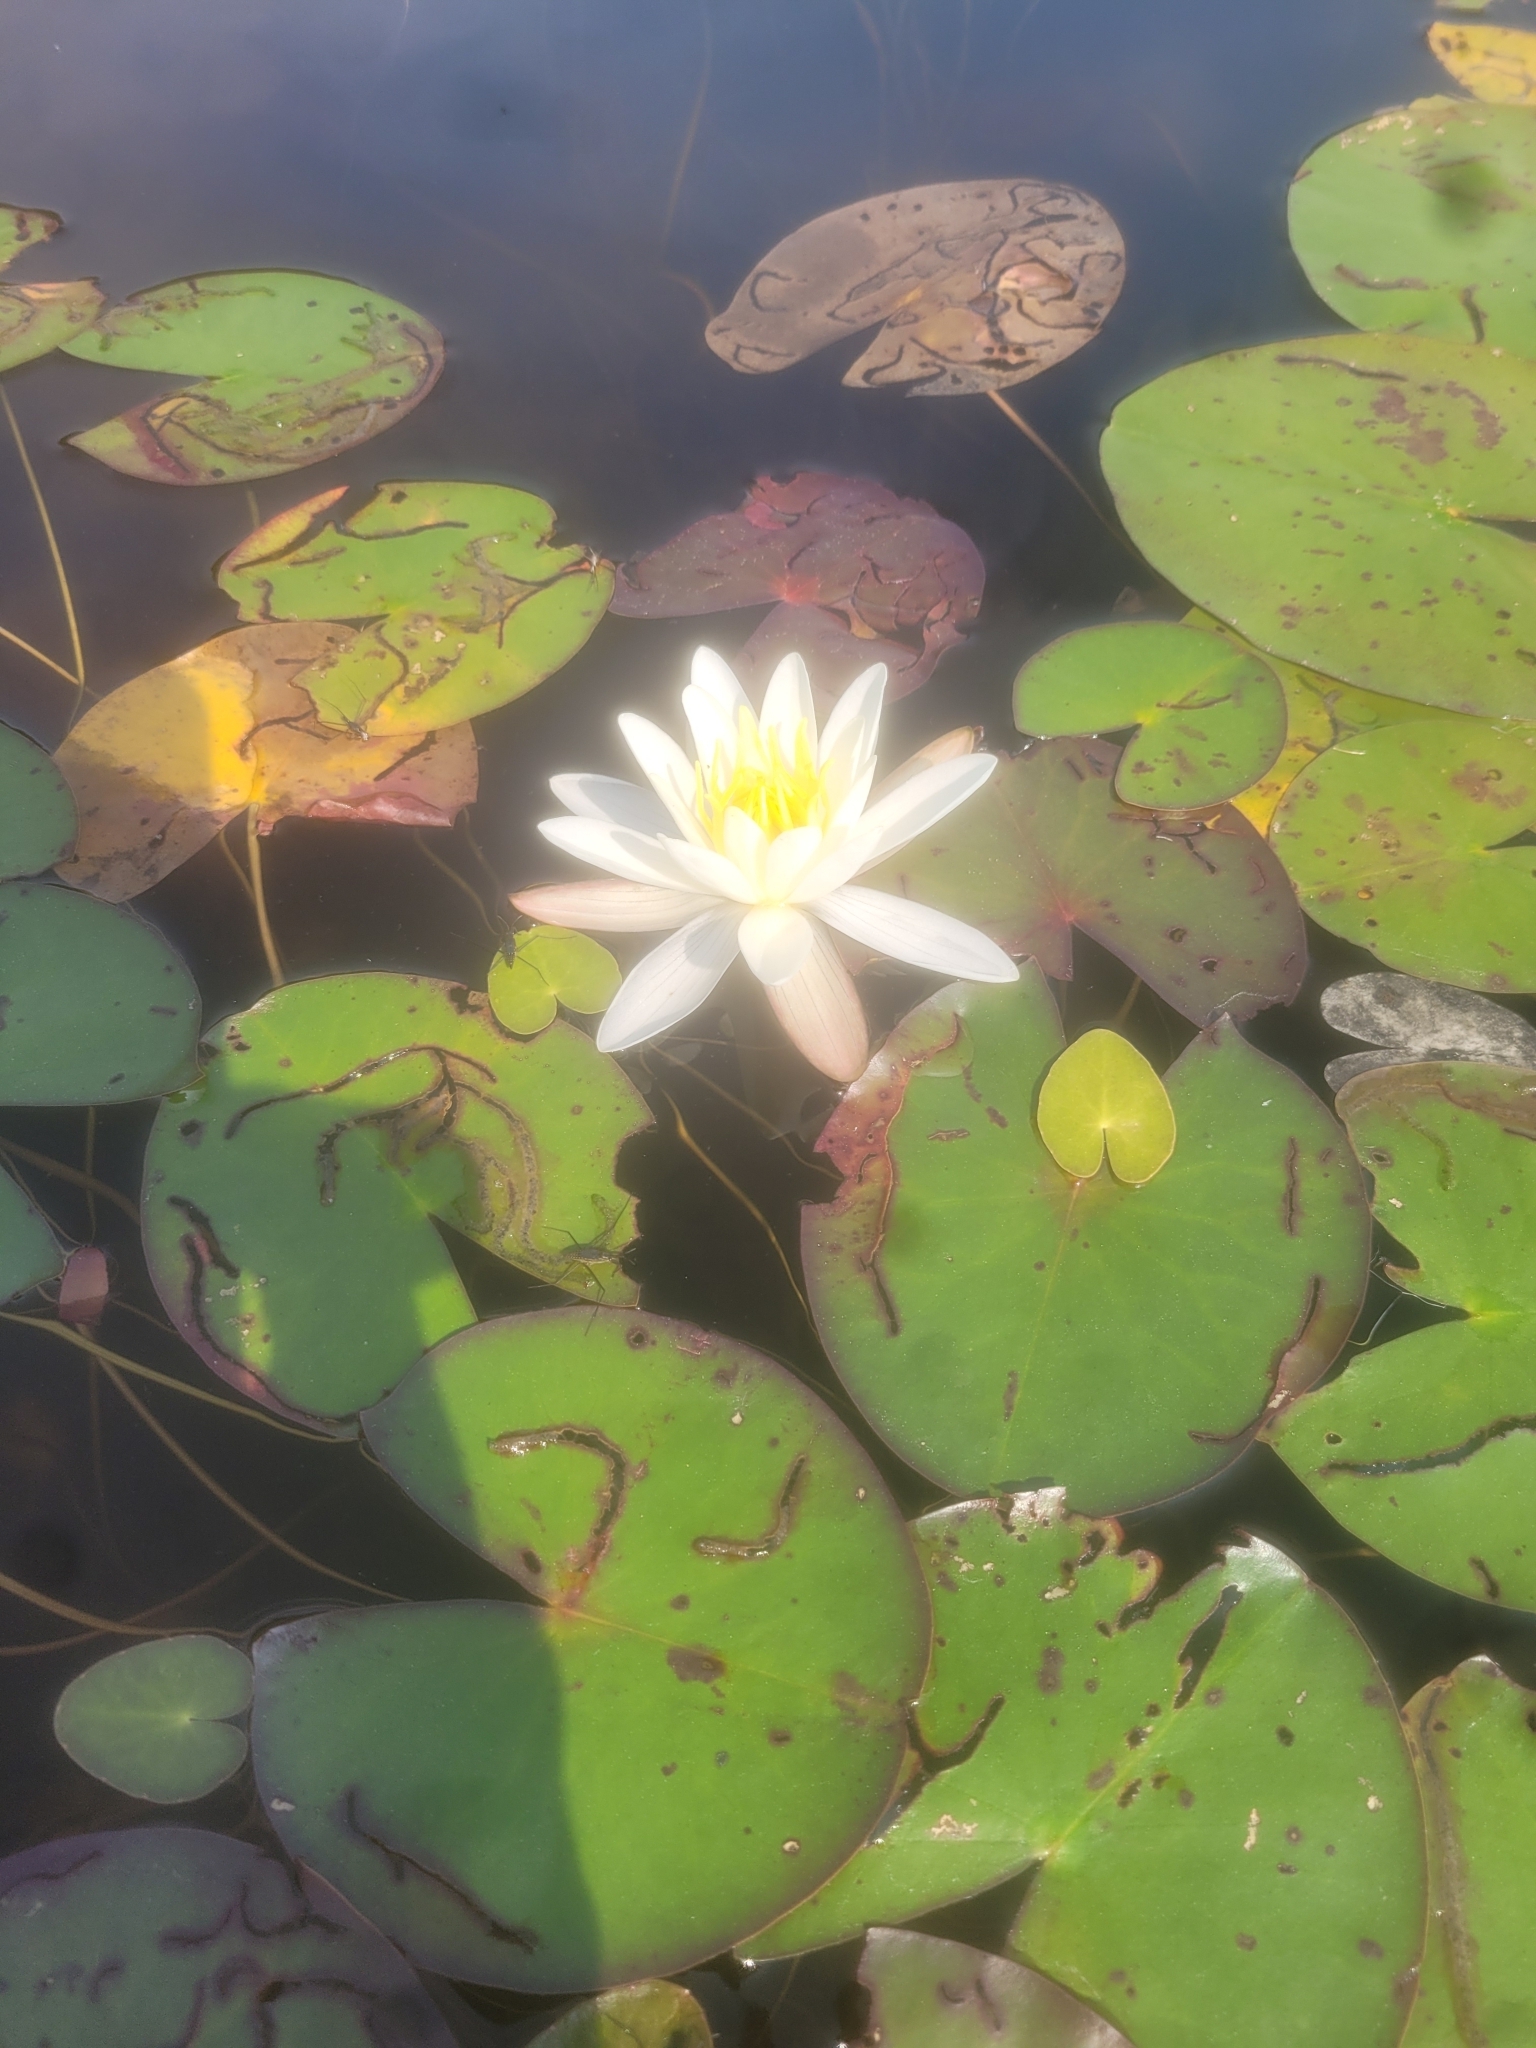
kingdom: Plantae
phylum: Tracheophyta
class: Magnoliopsida
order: Nymphaeales
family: Nymphaeaceae
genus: Nymphaea
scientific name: Nymphaea odorata
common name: Fragrant water-lily
